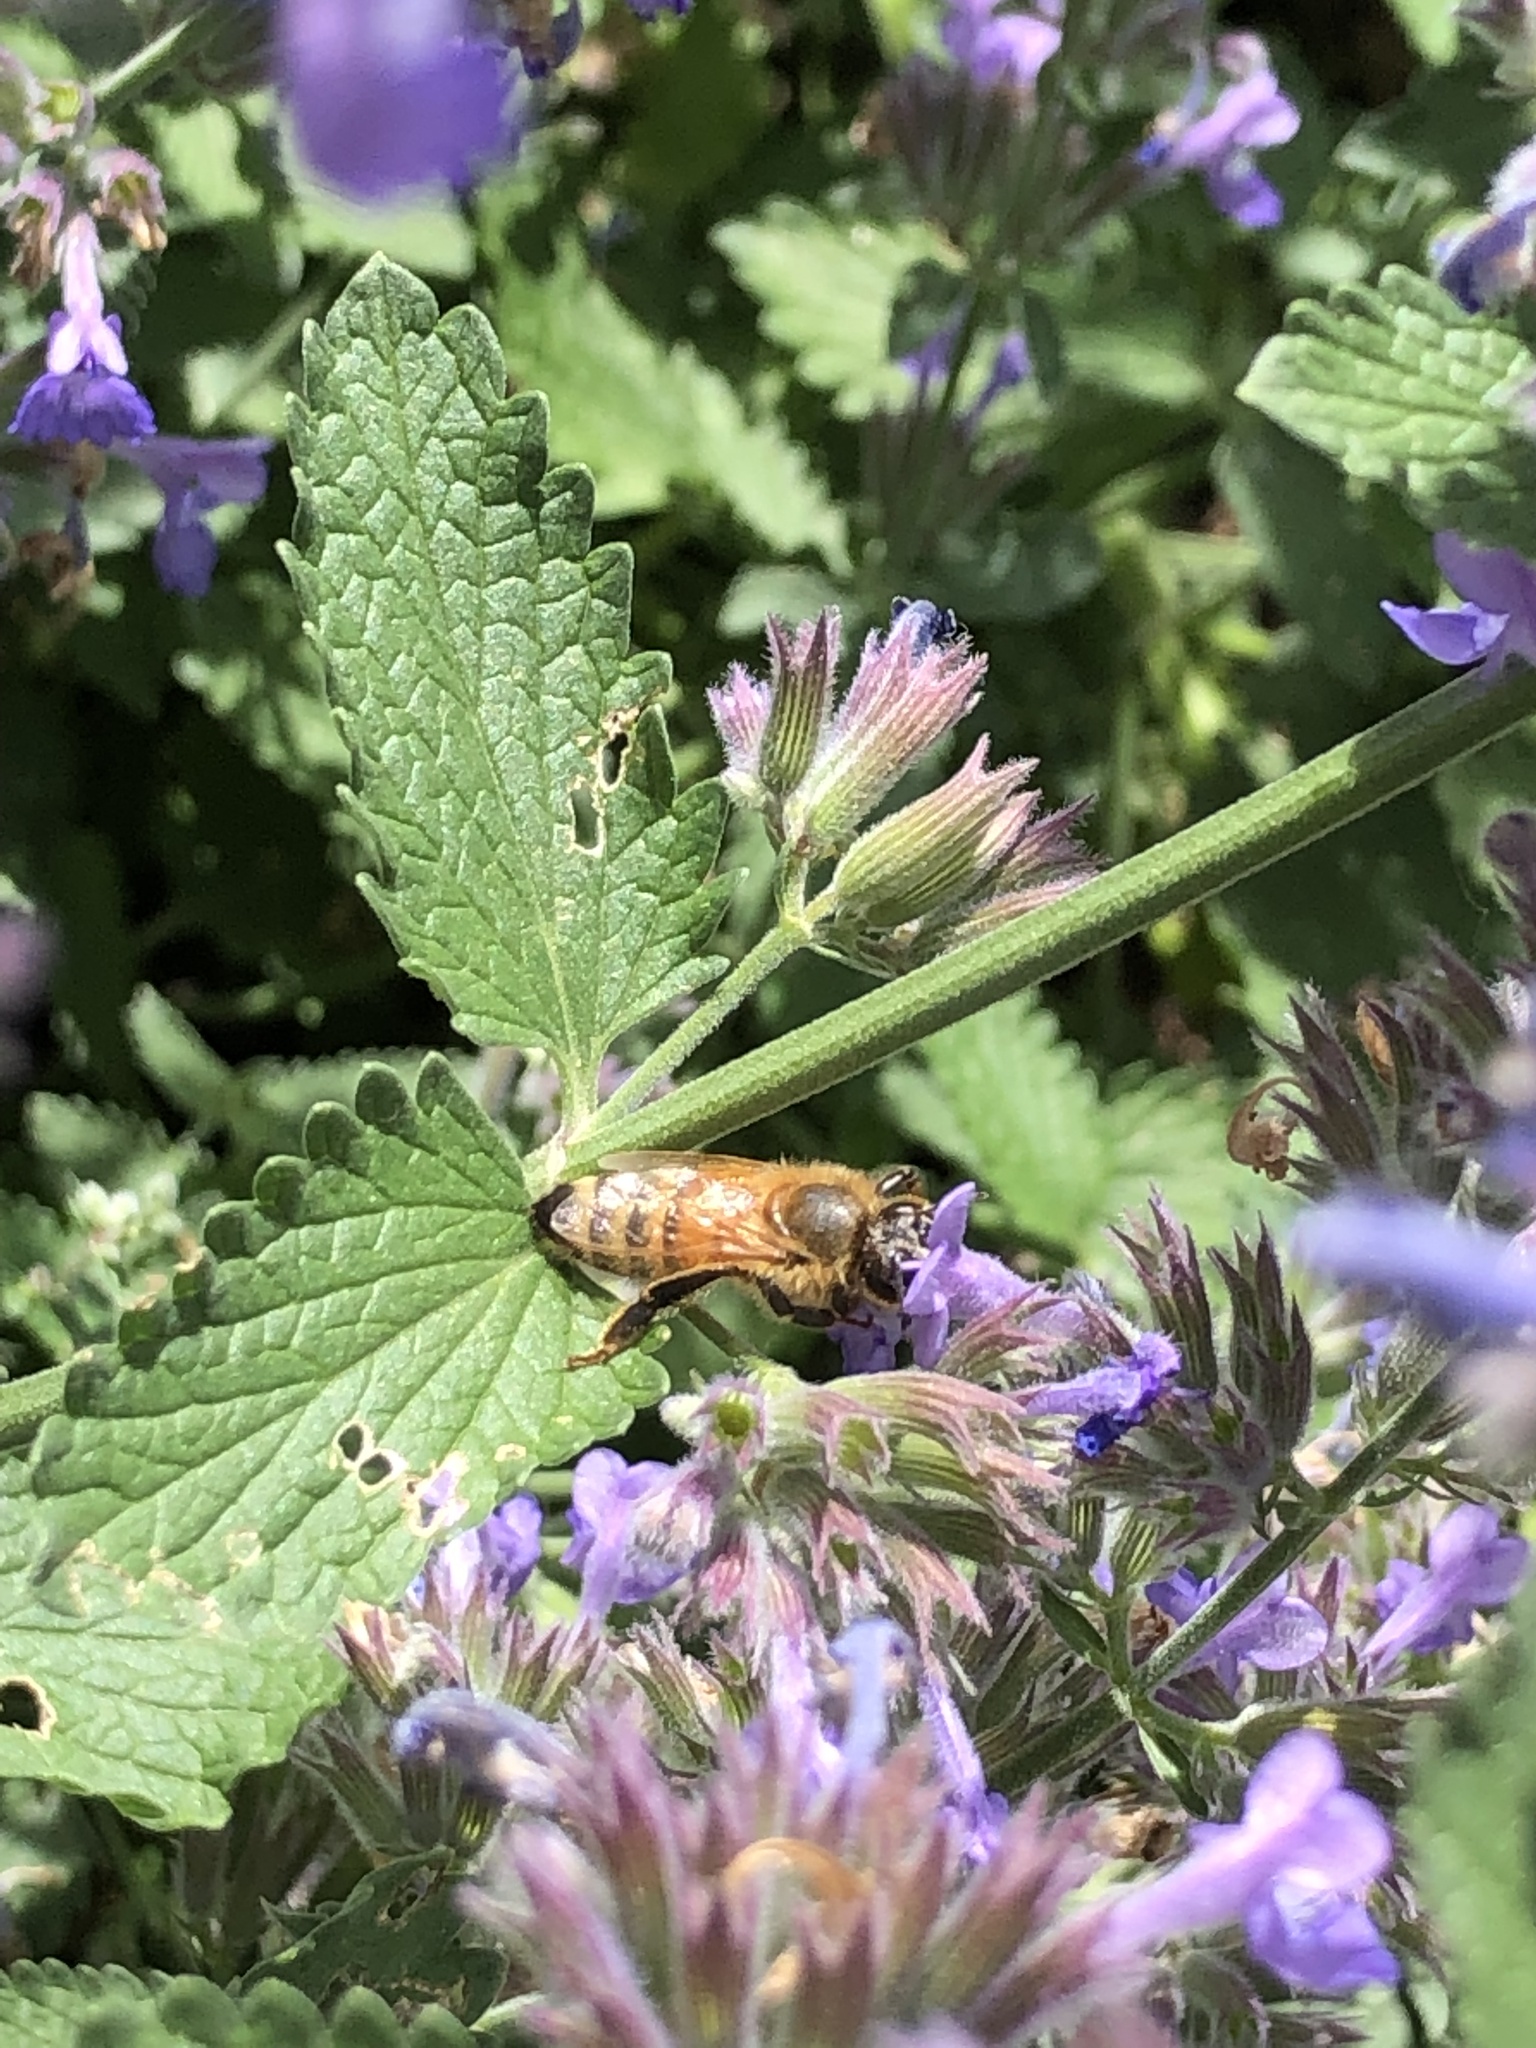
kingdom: Animalia
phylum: Arthropoda
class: Insecta
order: Hymenoptera
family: Apidae
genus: Apis
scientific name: Apis mellifera
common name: Honey bee
